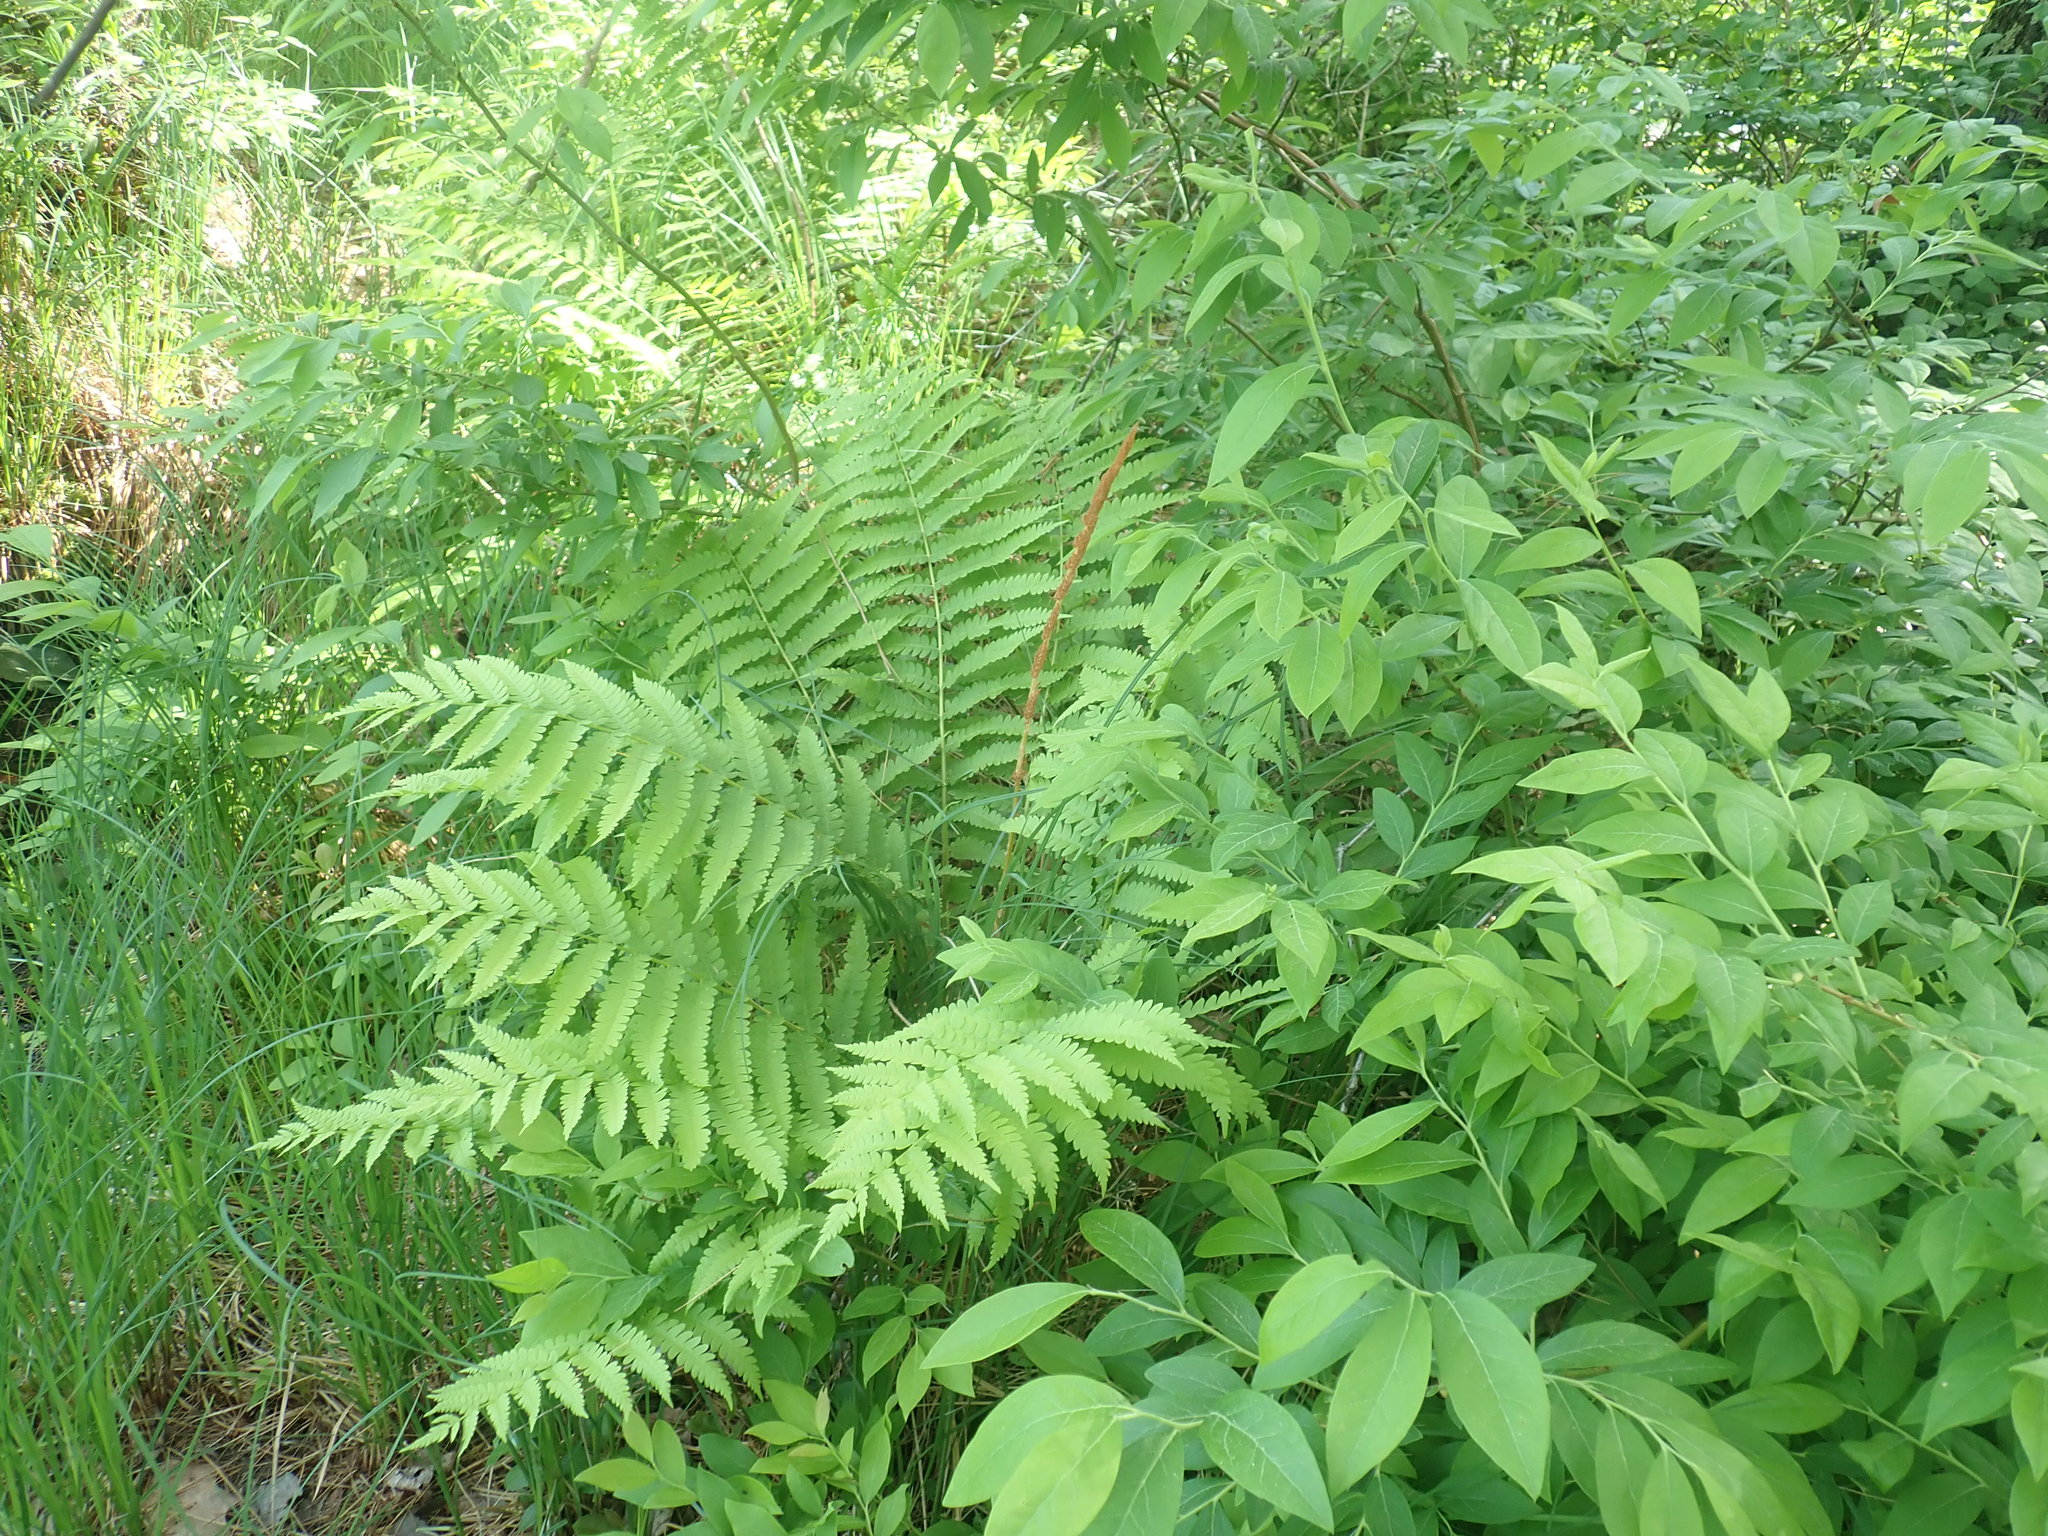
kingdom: Plantae
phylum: Tracheophyta
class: Polypodiopsida
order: Osmundales
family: Osmundaceae
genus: Osmundastrum
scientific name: Osmundastrum cinnamomeum
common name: Cinnamon fern
